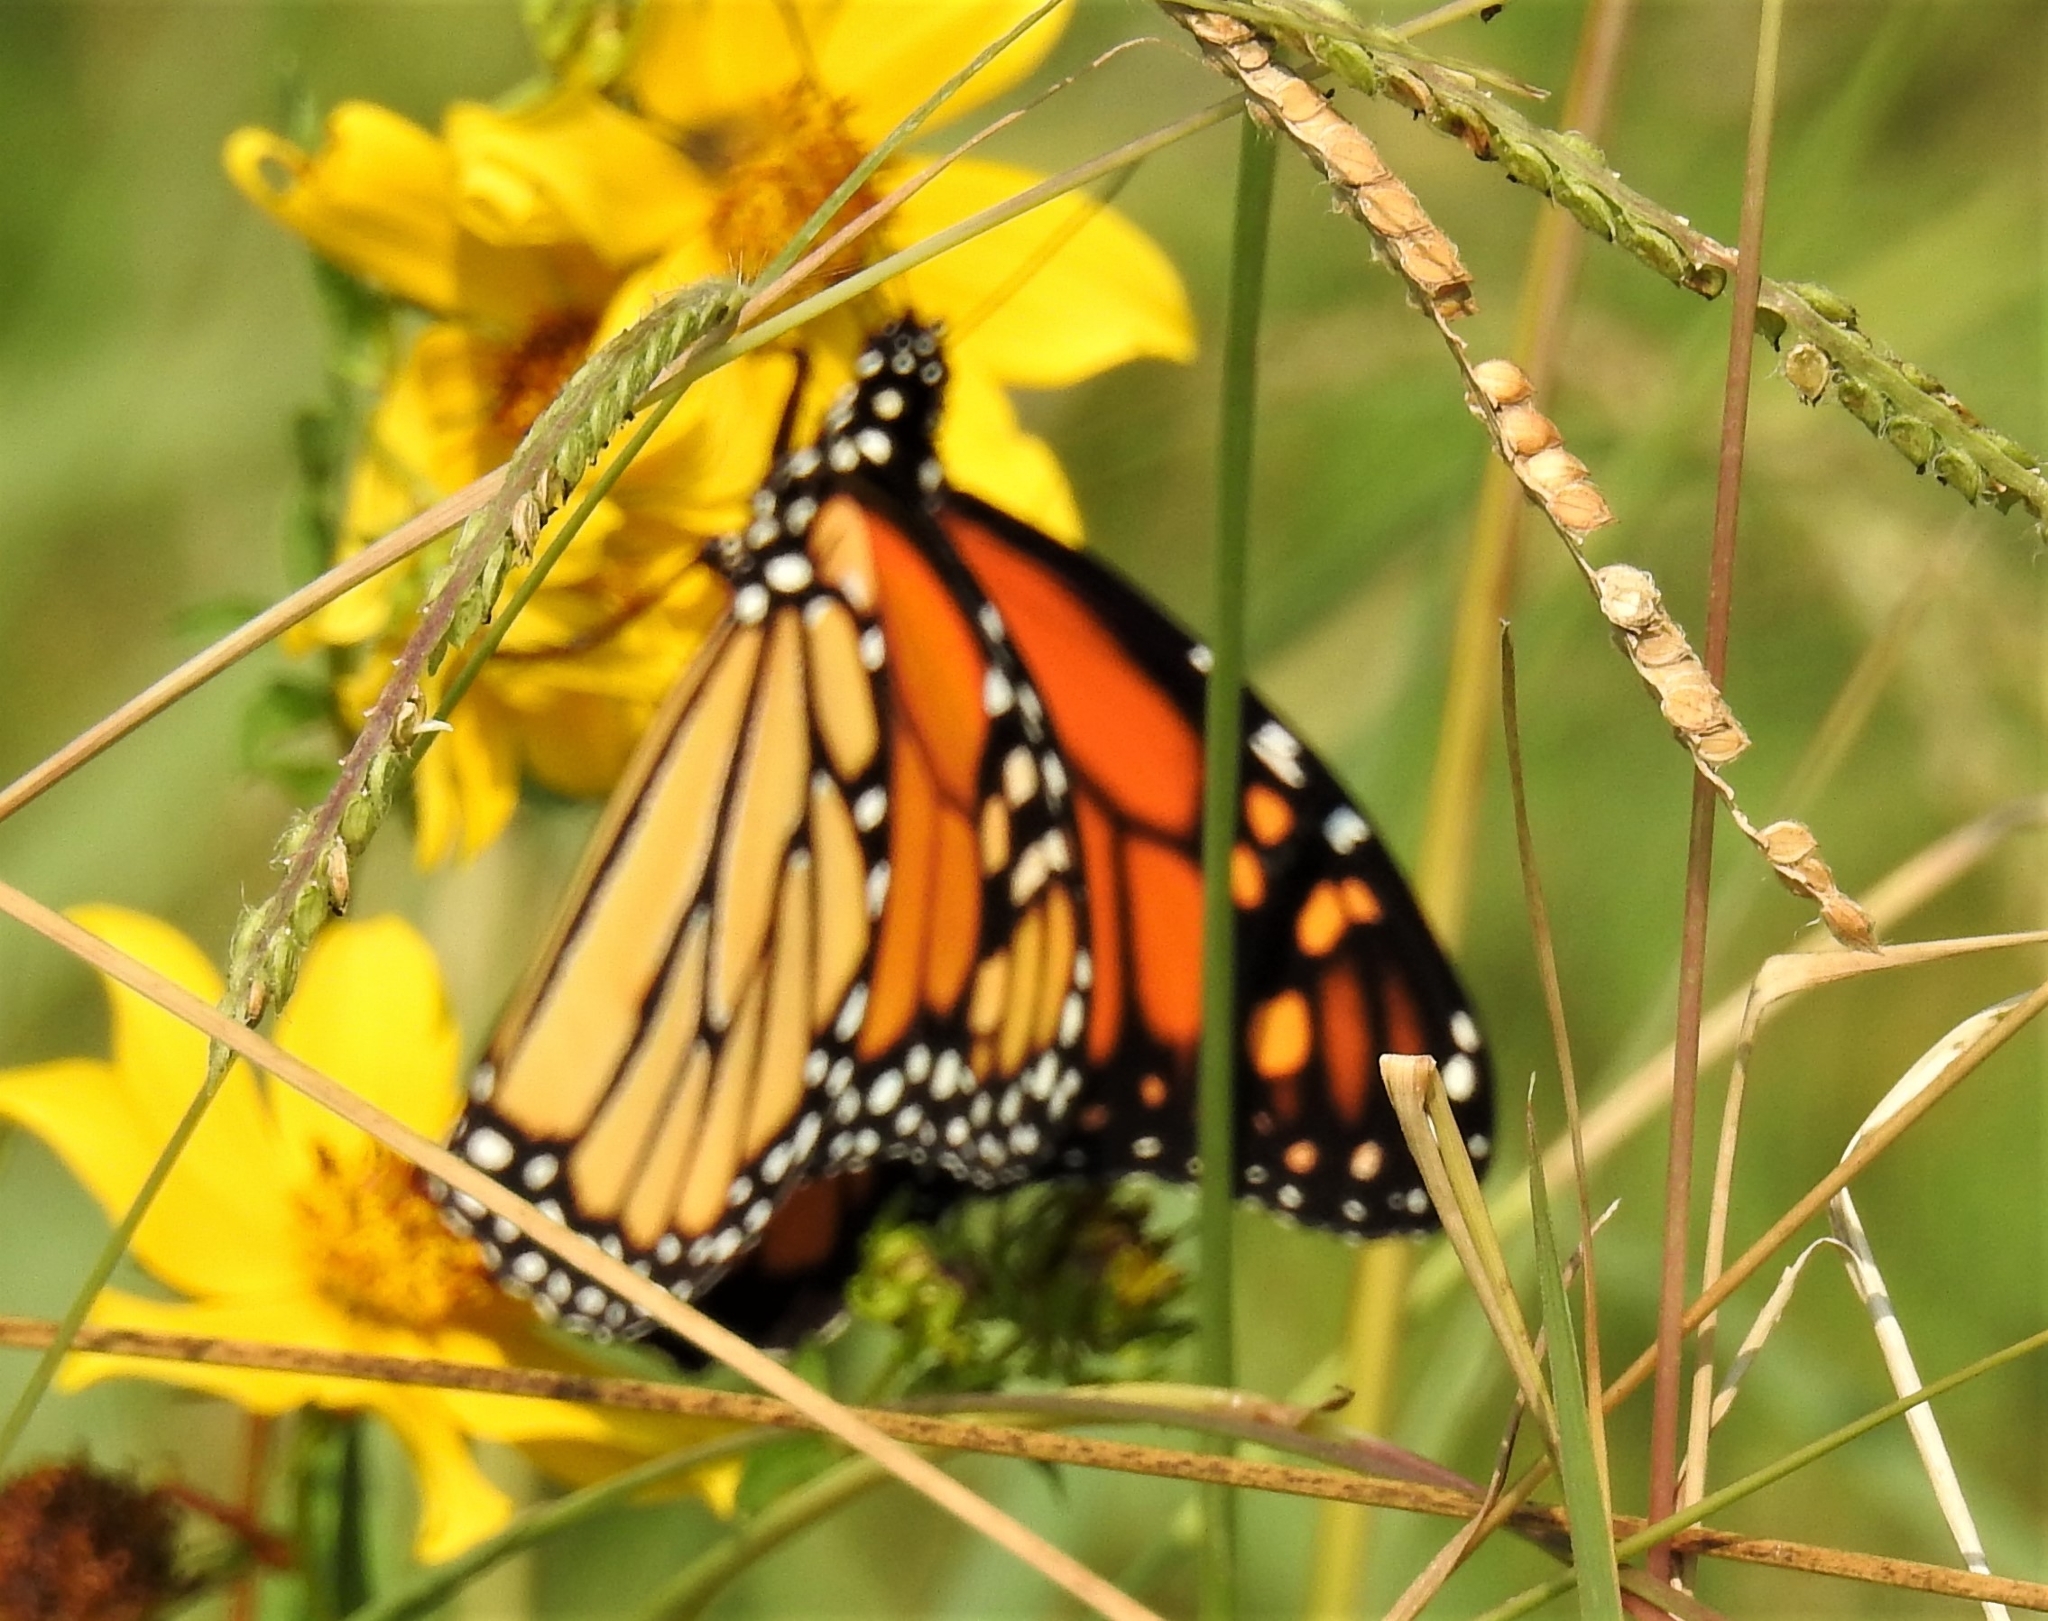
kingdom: Animalia
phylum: Arthropoda
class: Insecta
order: Lepidoptera
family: Nymphalidae
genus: Danaus
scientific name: Danaus plexippus
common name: Monarch
